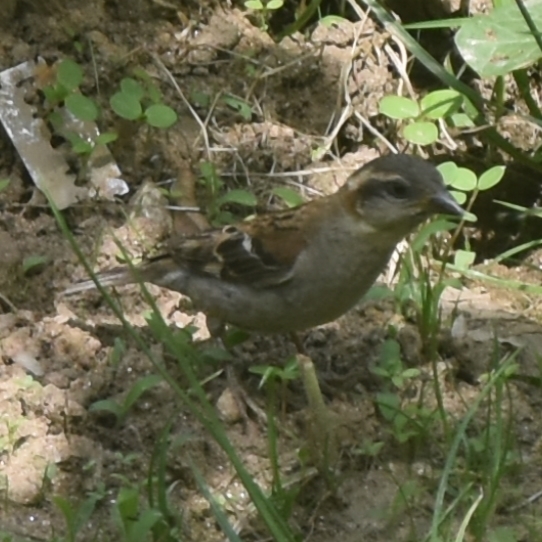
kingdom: Animalia
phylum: Chordata
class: Aves
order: Passeriformes
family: Passeridae
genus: Passer
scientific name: Passer cinnamomeus
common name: Russet sparrow
